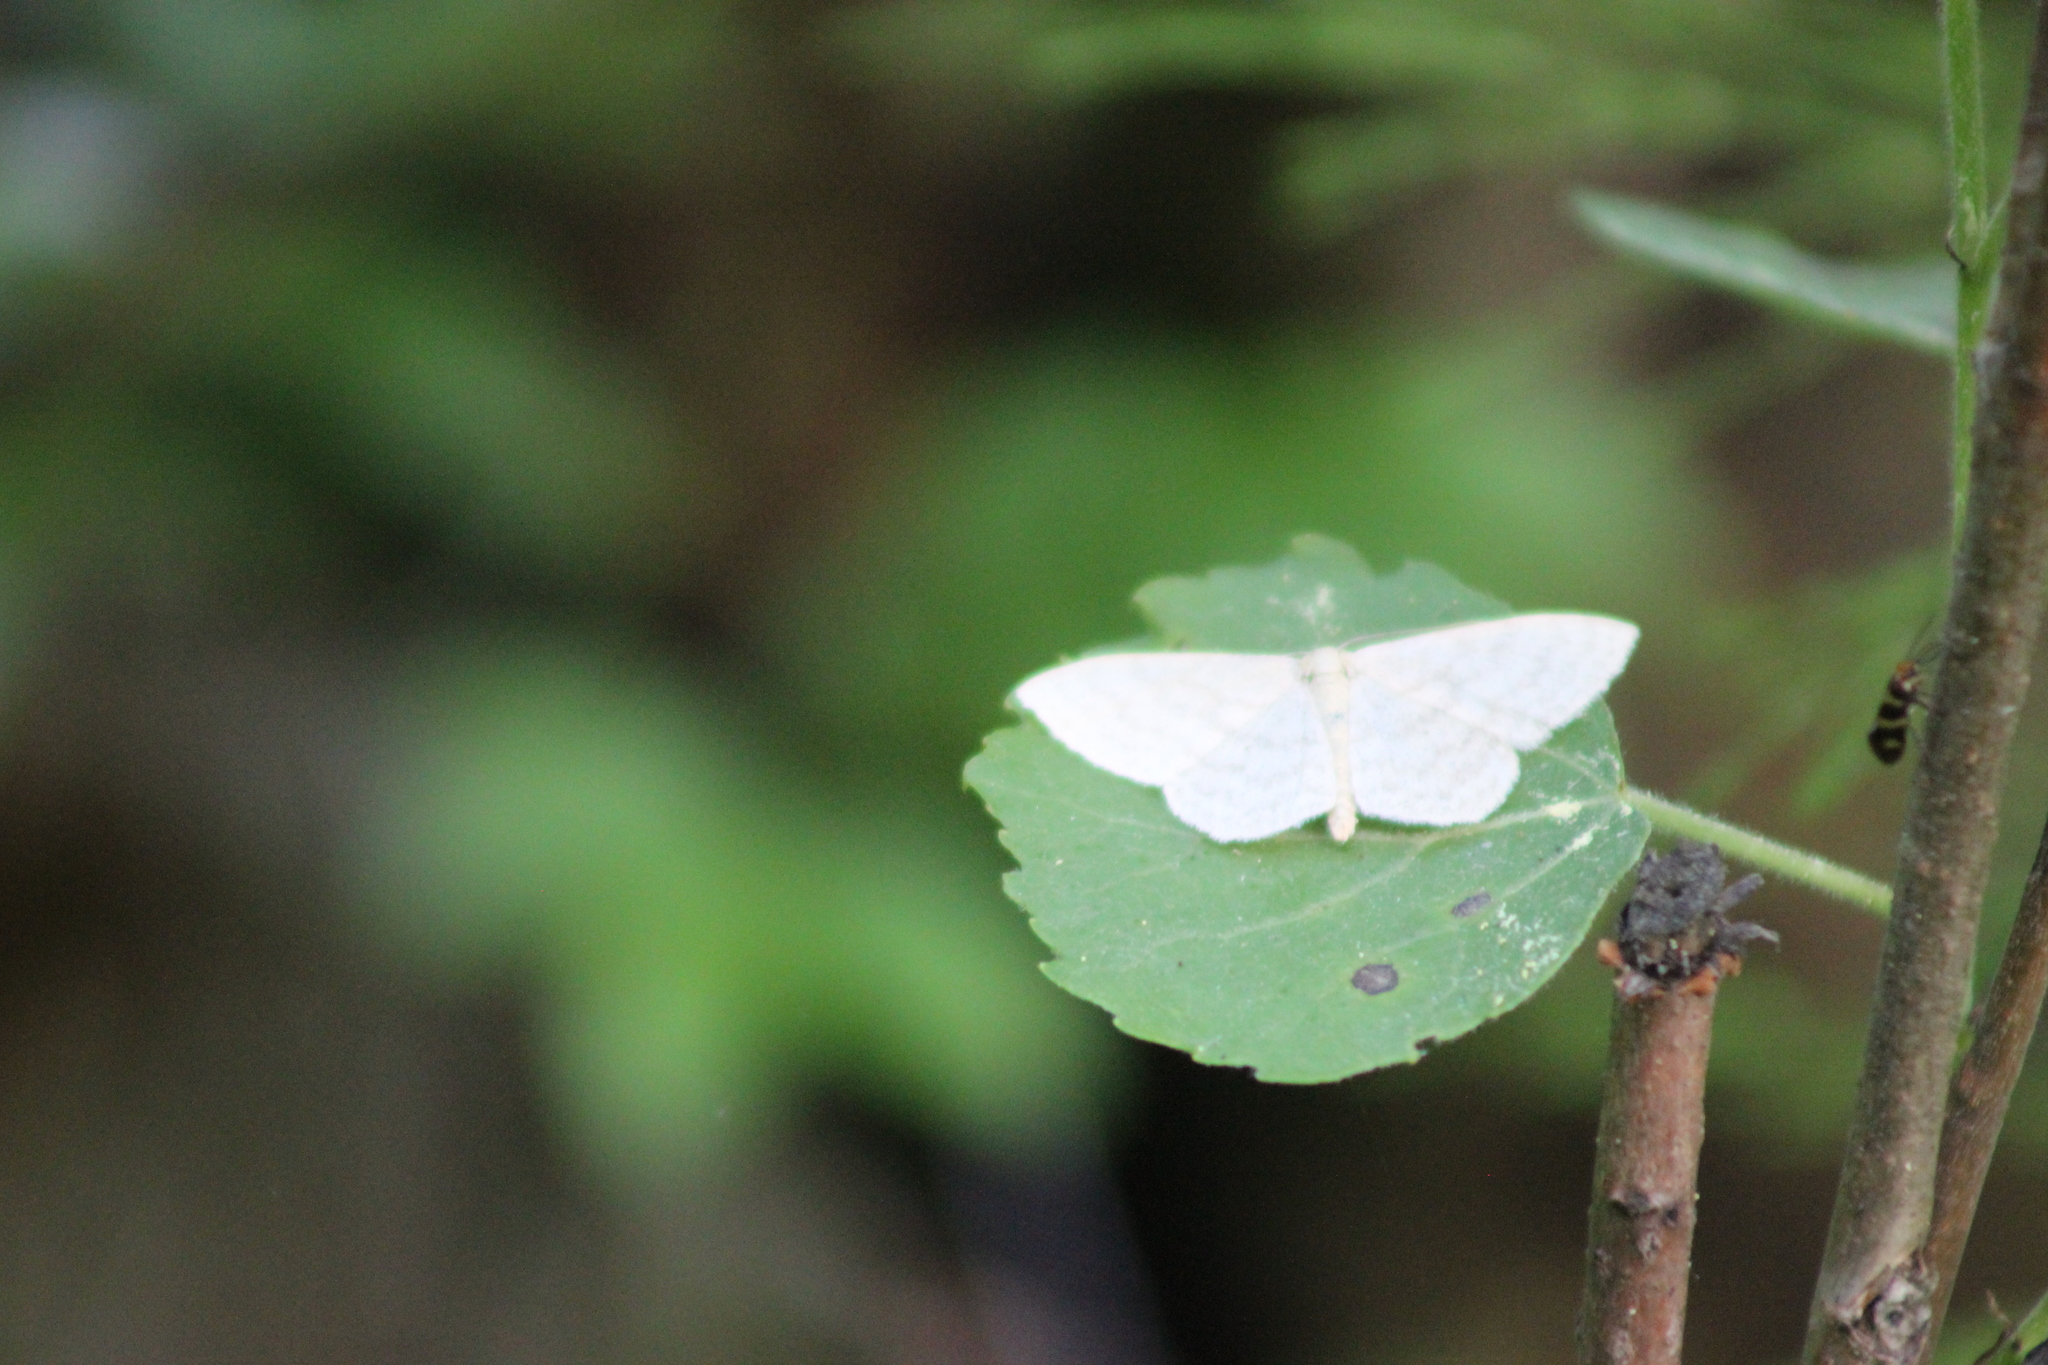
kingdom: Animalia
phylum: Arthropoda
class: Insecta
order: Lepidoptera
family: Geometridae
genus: Scopula
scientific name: Scopula floslactata
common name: Cream wave
